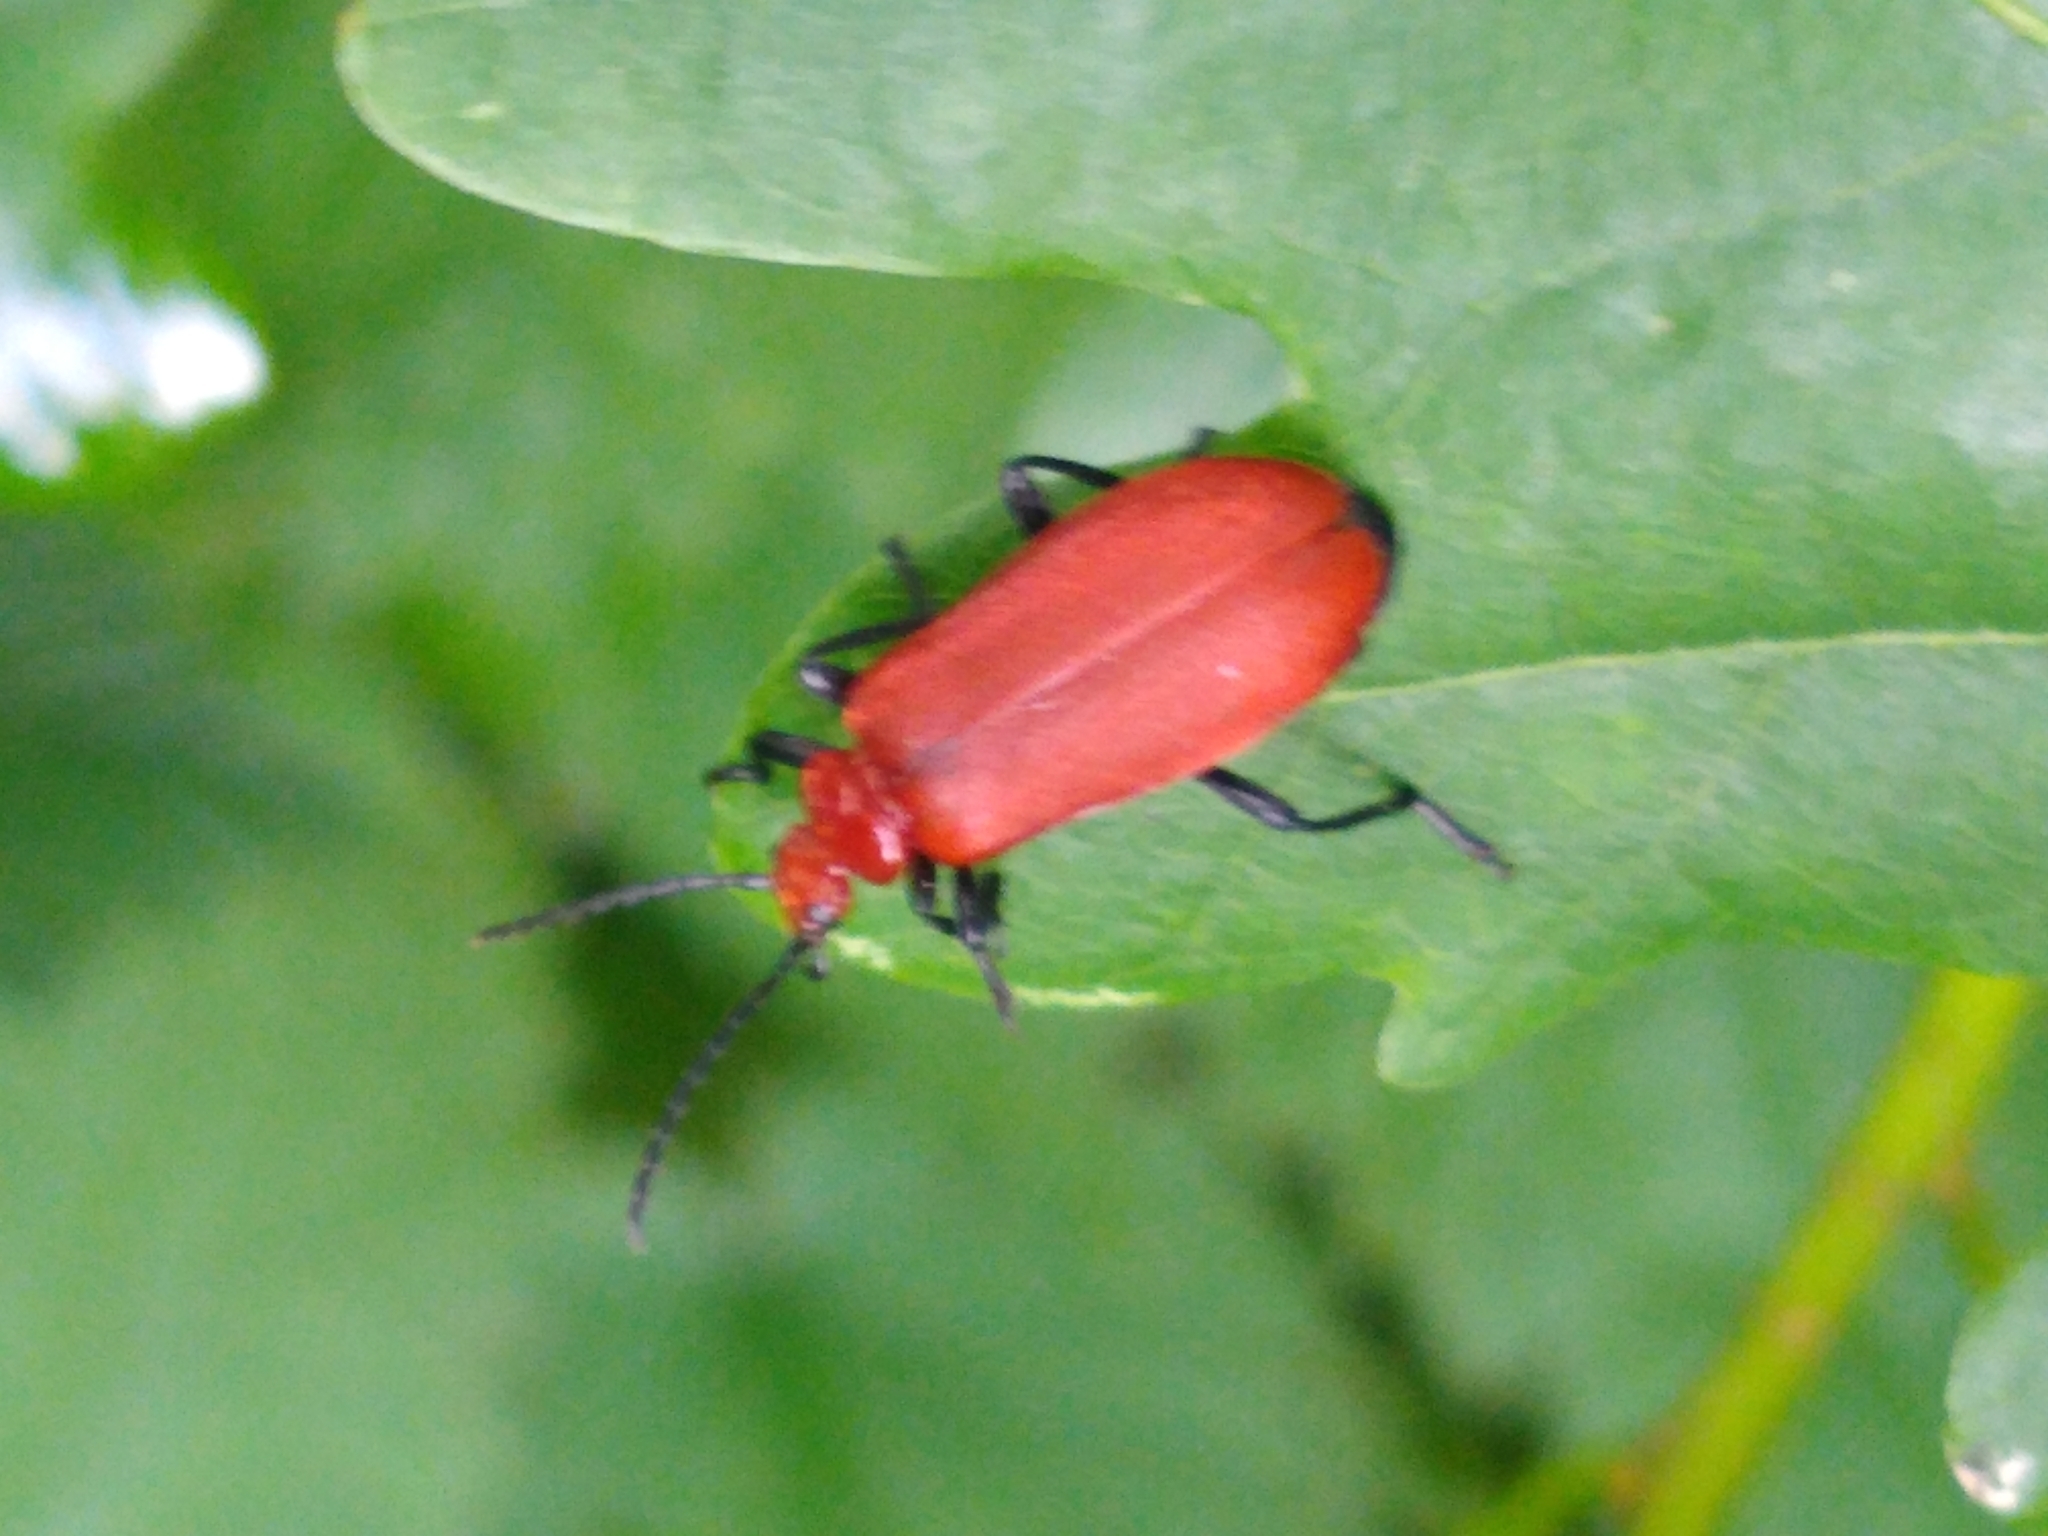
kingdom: Animalia
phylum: Arthropoda
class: Insecta
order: Coleoptera
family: Pyrochroidae
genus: Pyrochroa
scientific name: Pyrochroa serraticornis
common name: Red-headed cardinal beetle
